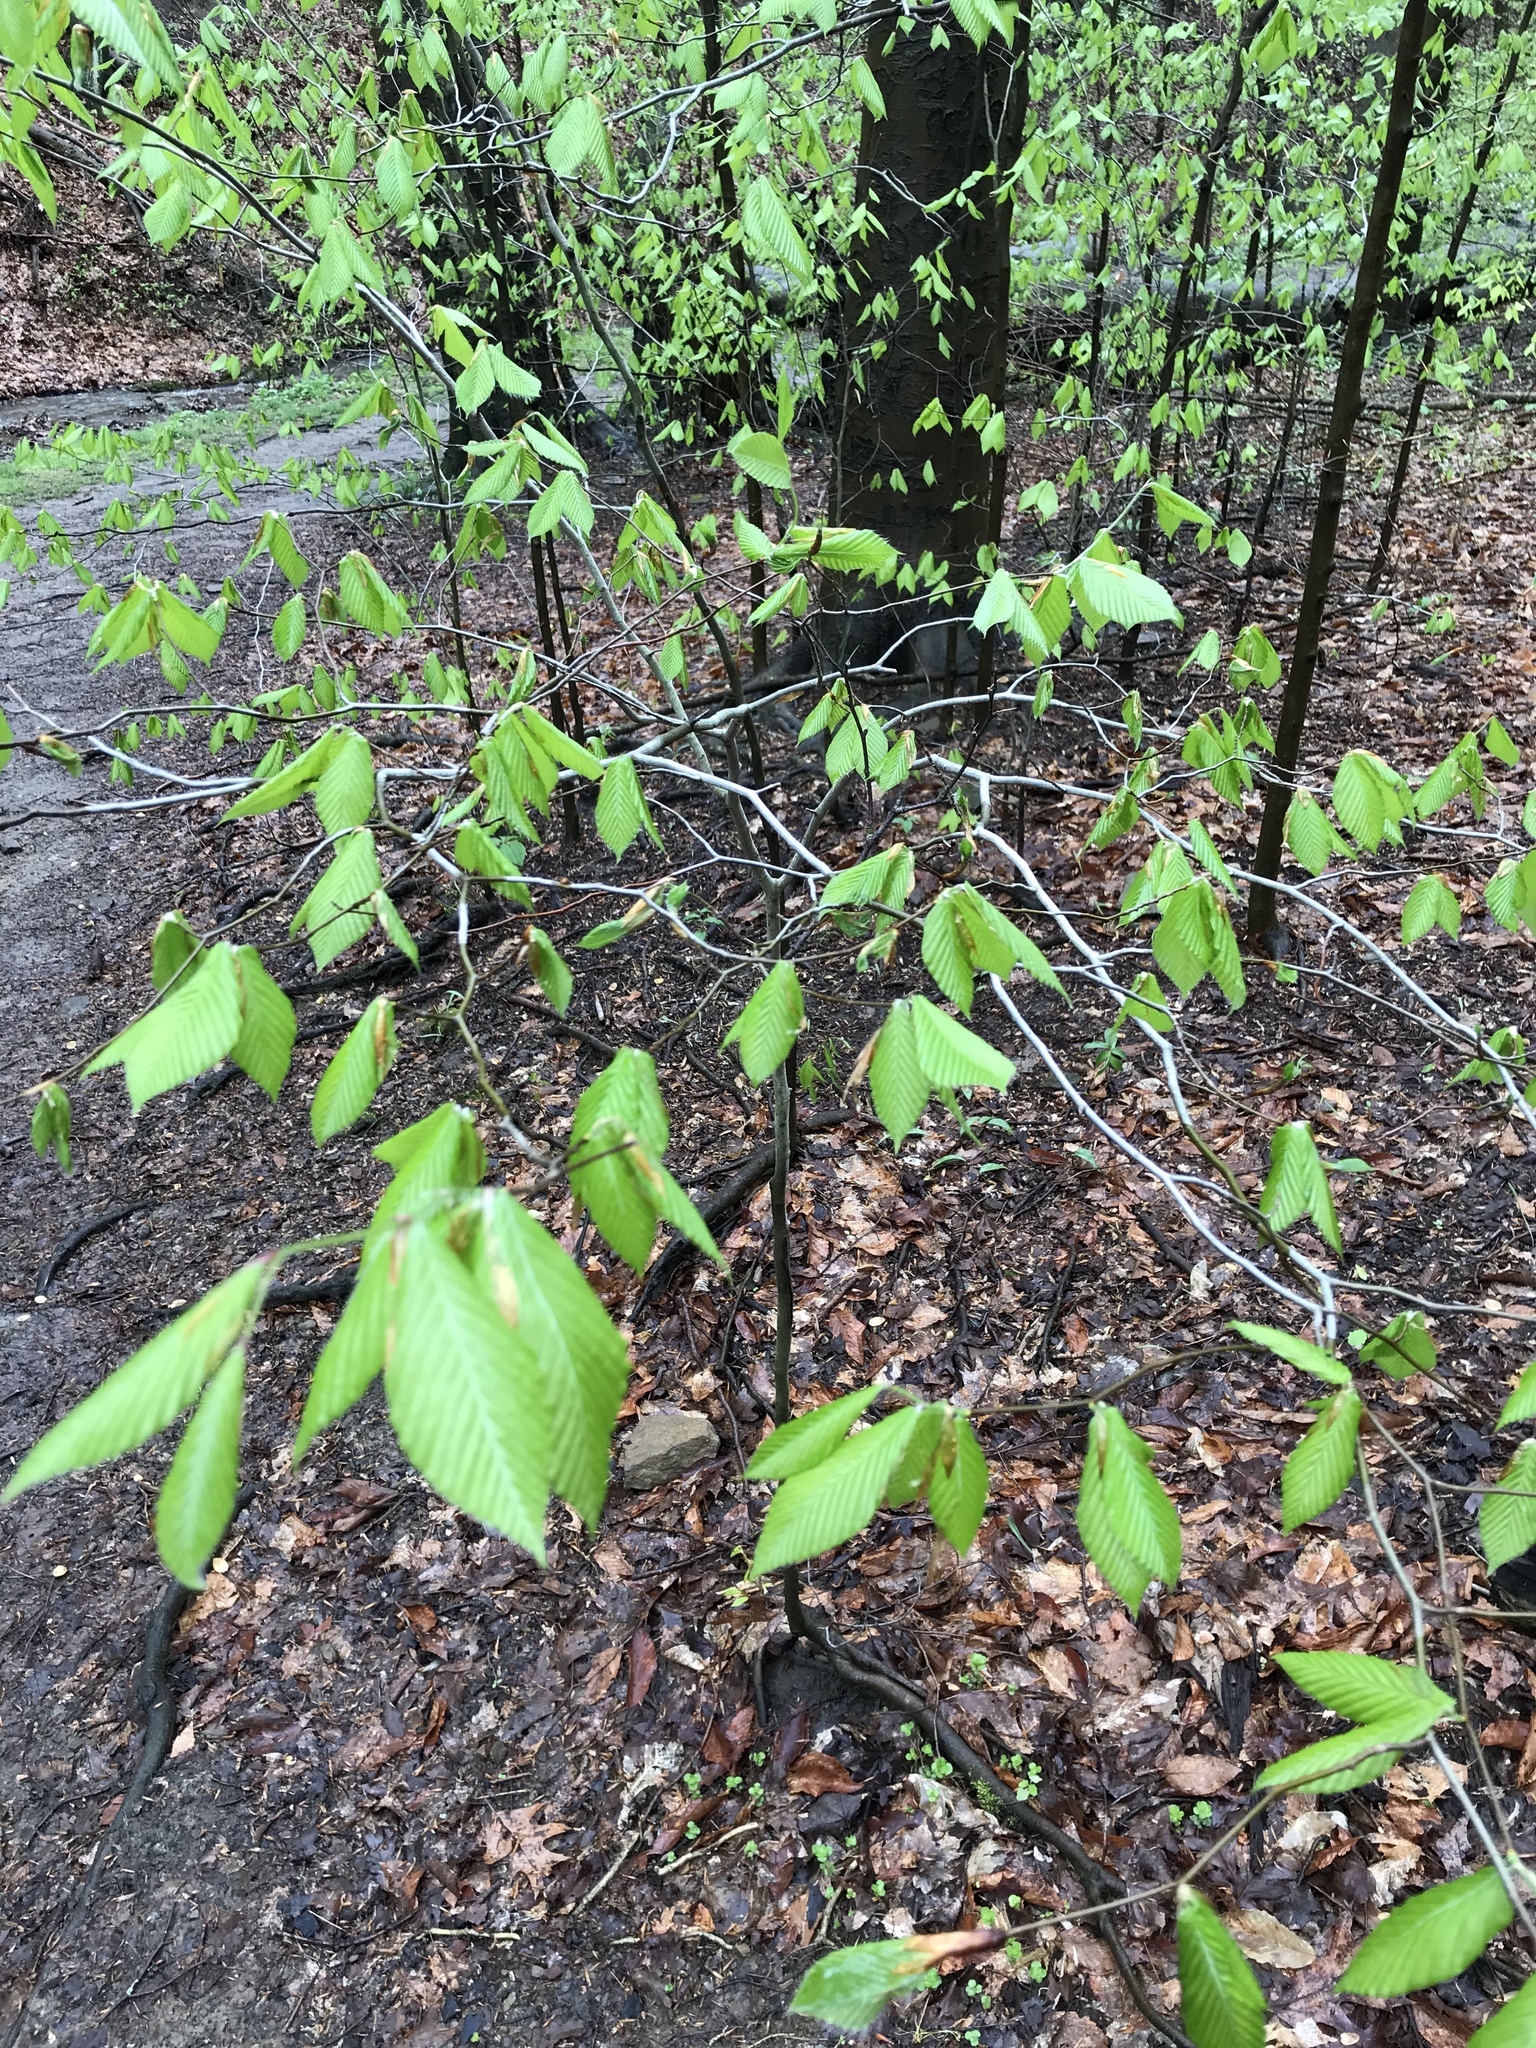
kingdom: Plantae
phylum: Tracheophyta
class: Magnoliopsida
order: Fagales
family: Fagaceae
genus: Fagus
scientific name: Fagus grandifolia
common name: American beech
